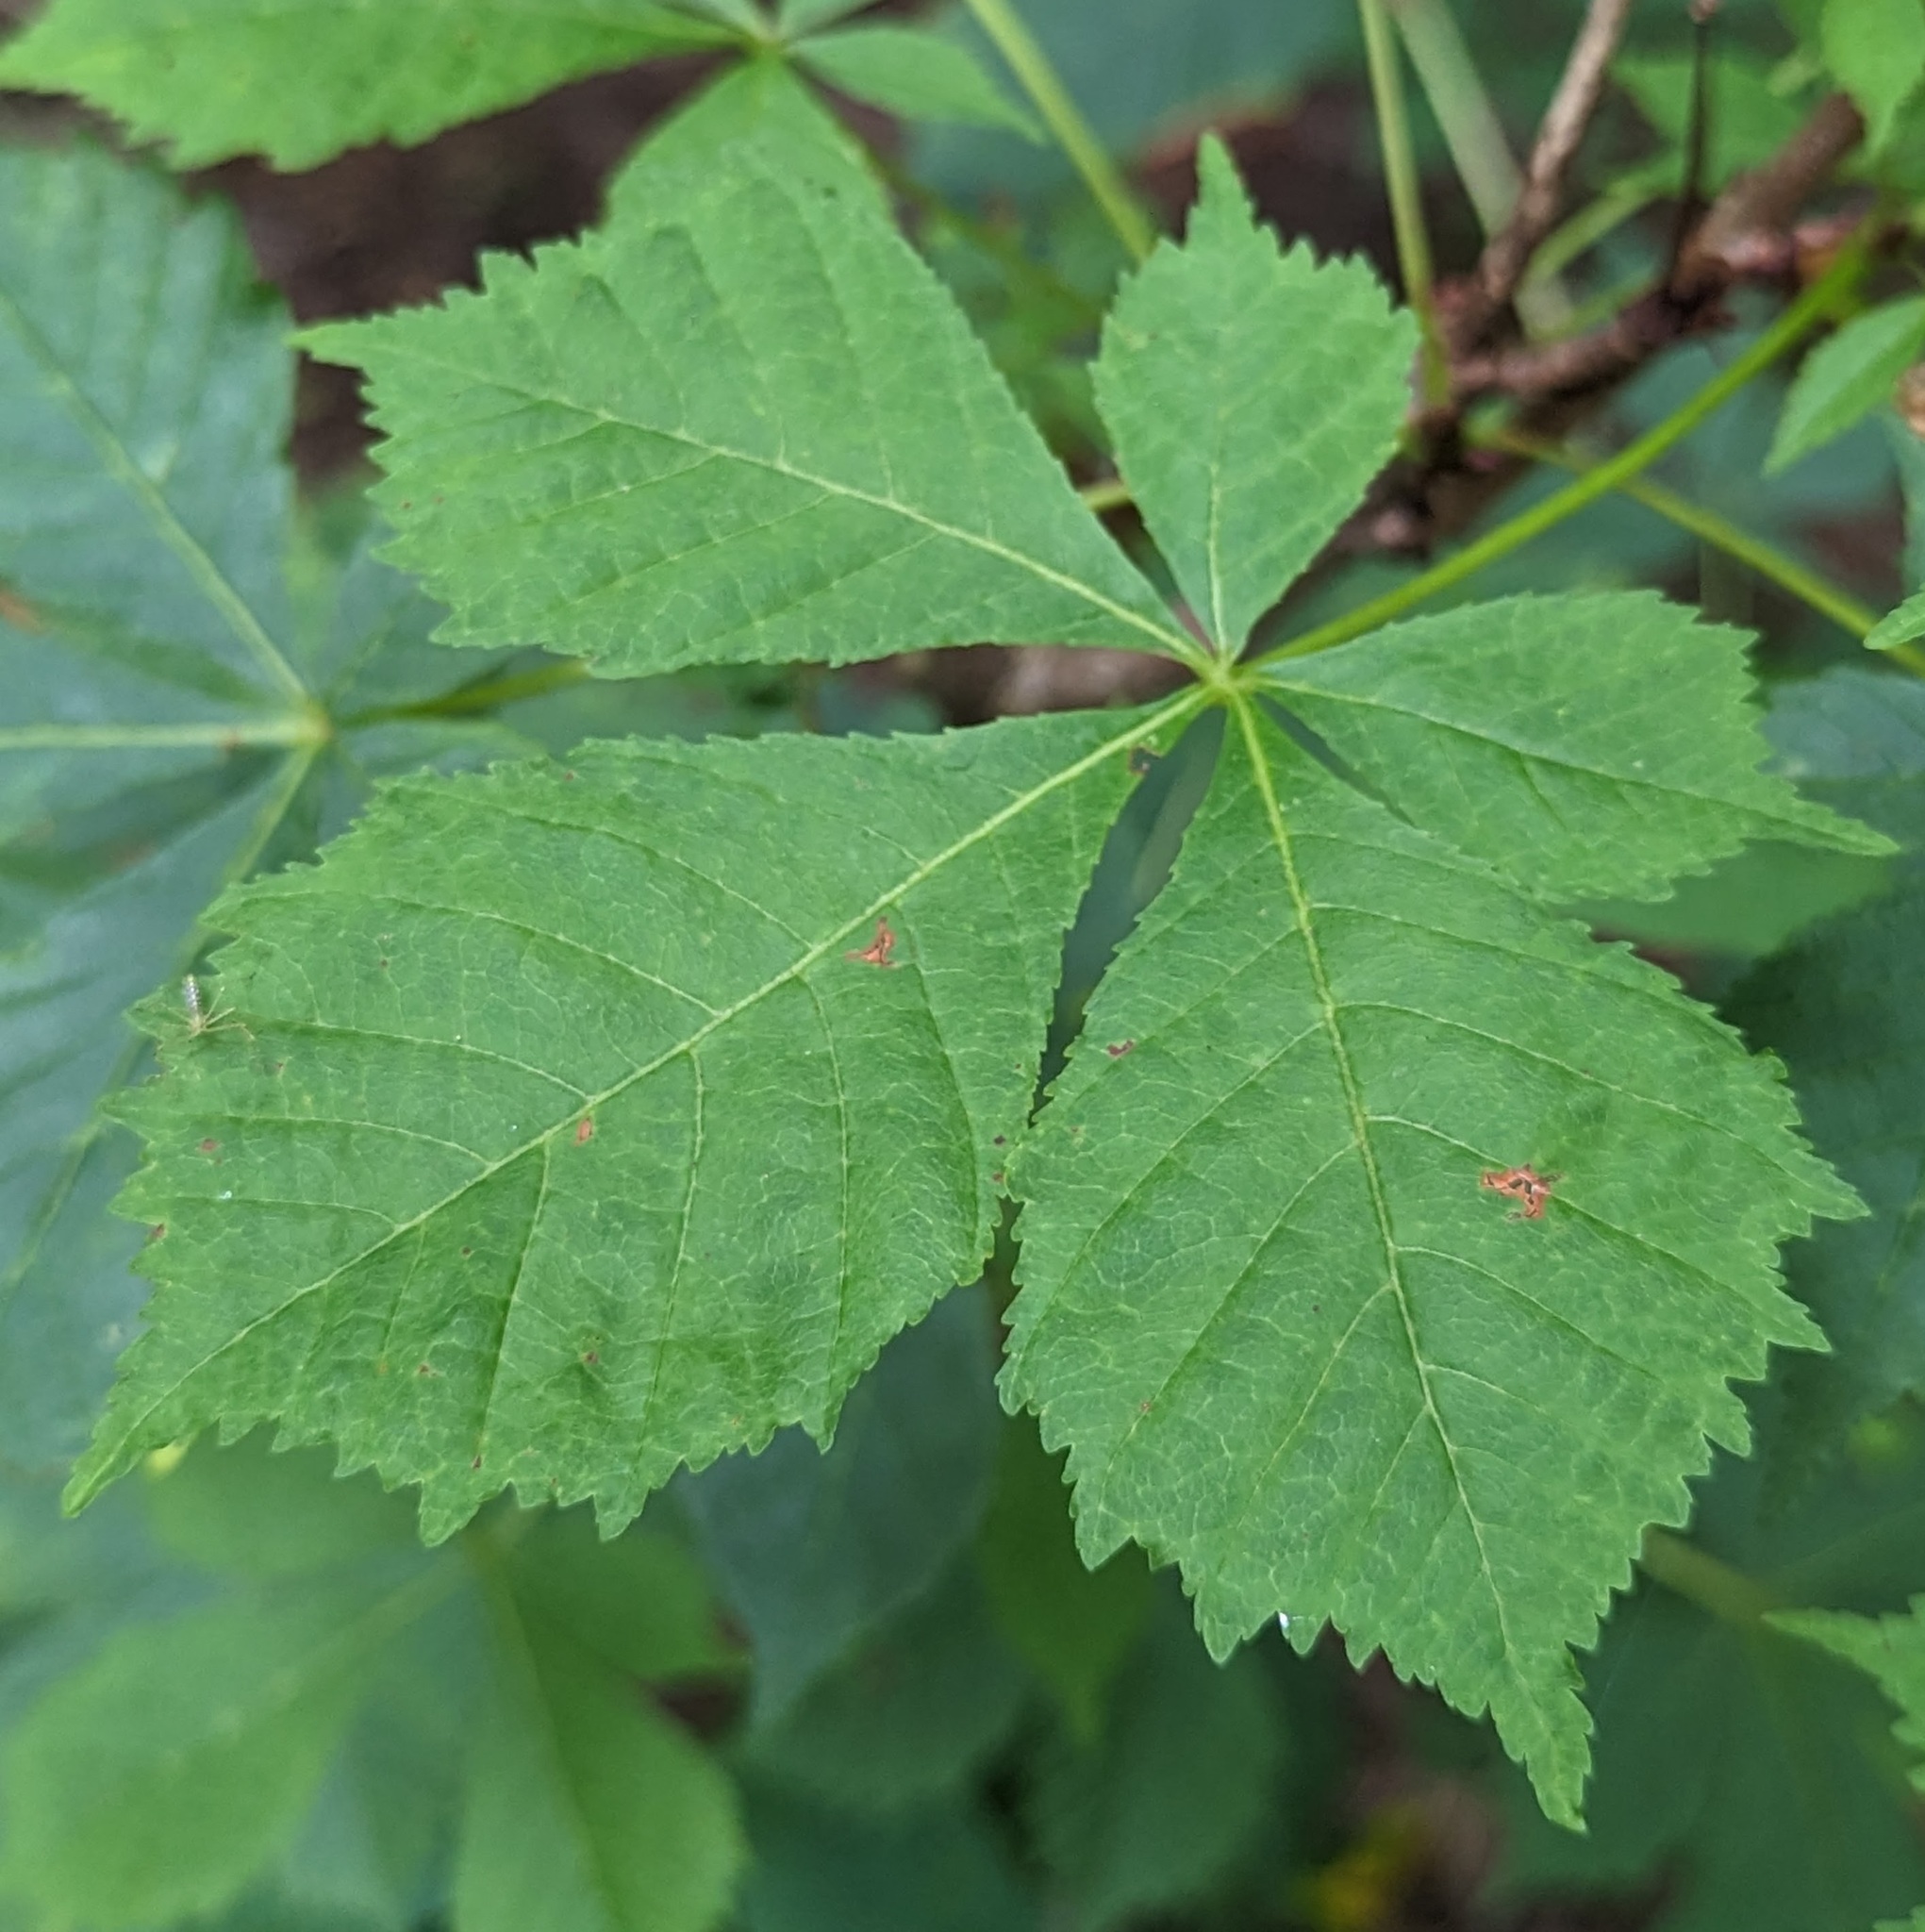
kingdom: Plantae
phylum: Tracheophyta
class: Magnoliopsida
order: Sapindales
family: Sapindaceae
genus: Aesculus
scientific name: Aesculus hippocastanum
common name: Horse-chestnut
